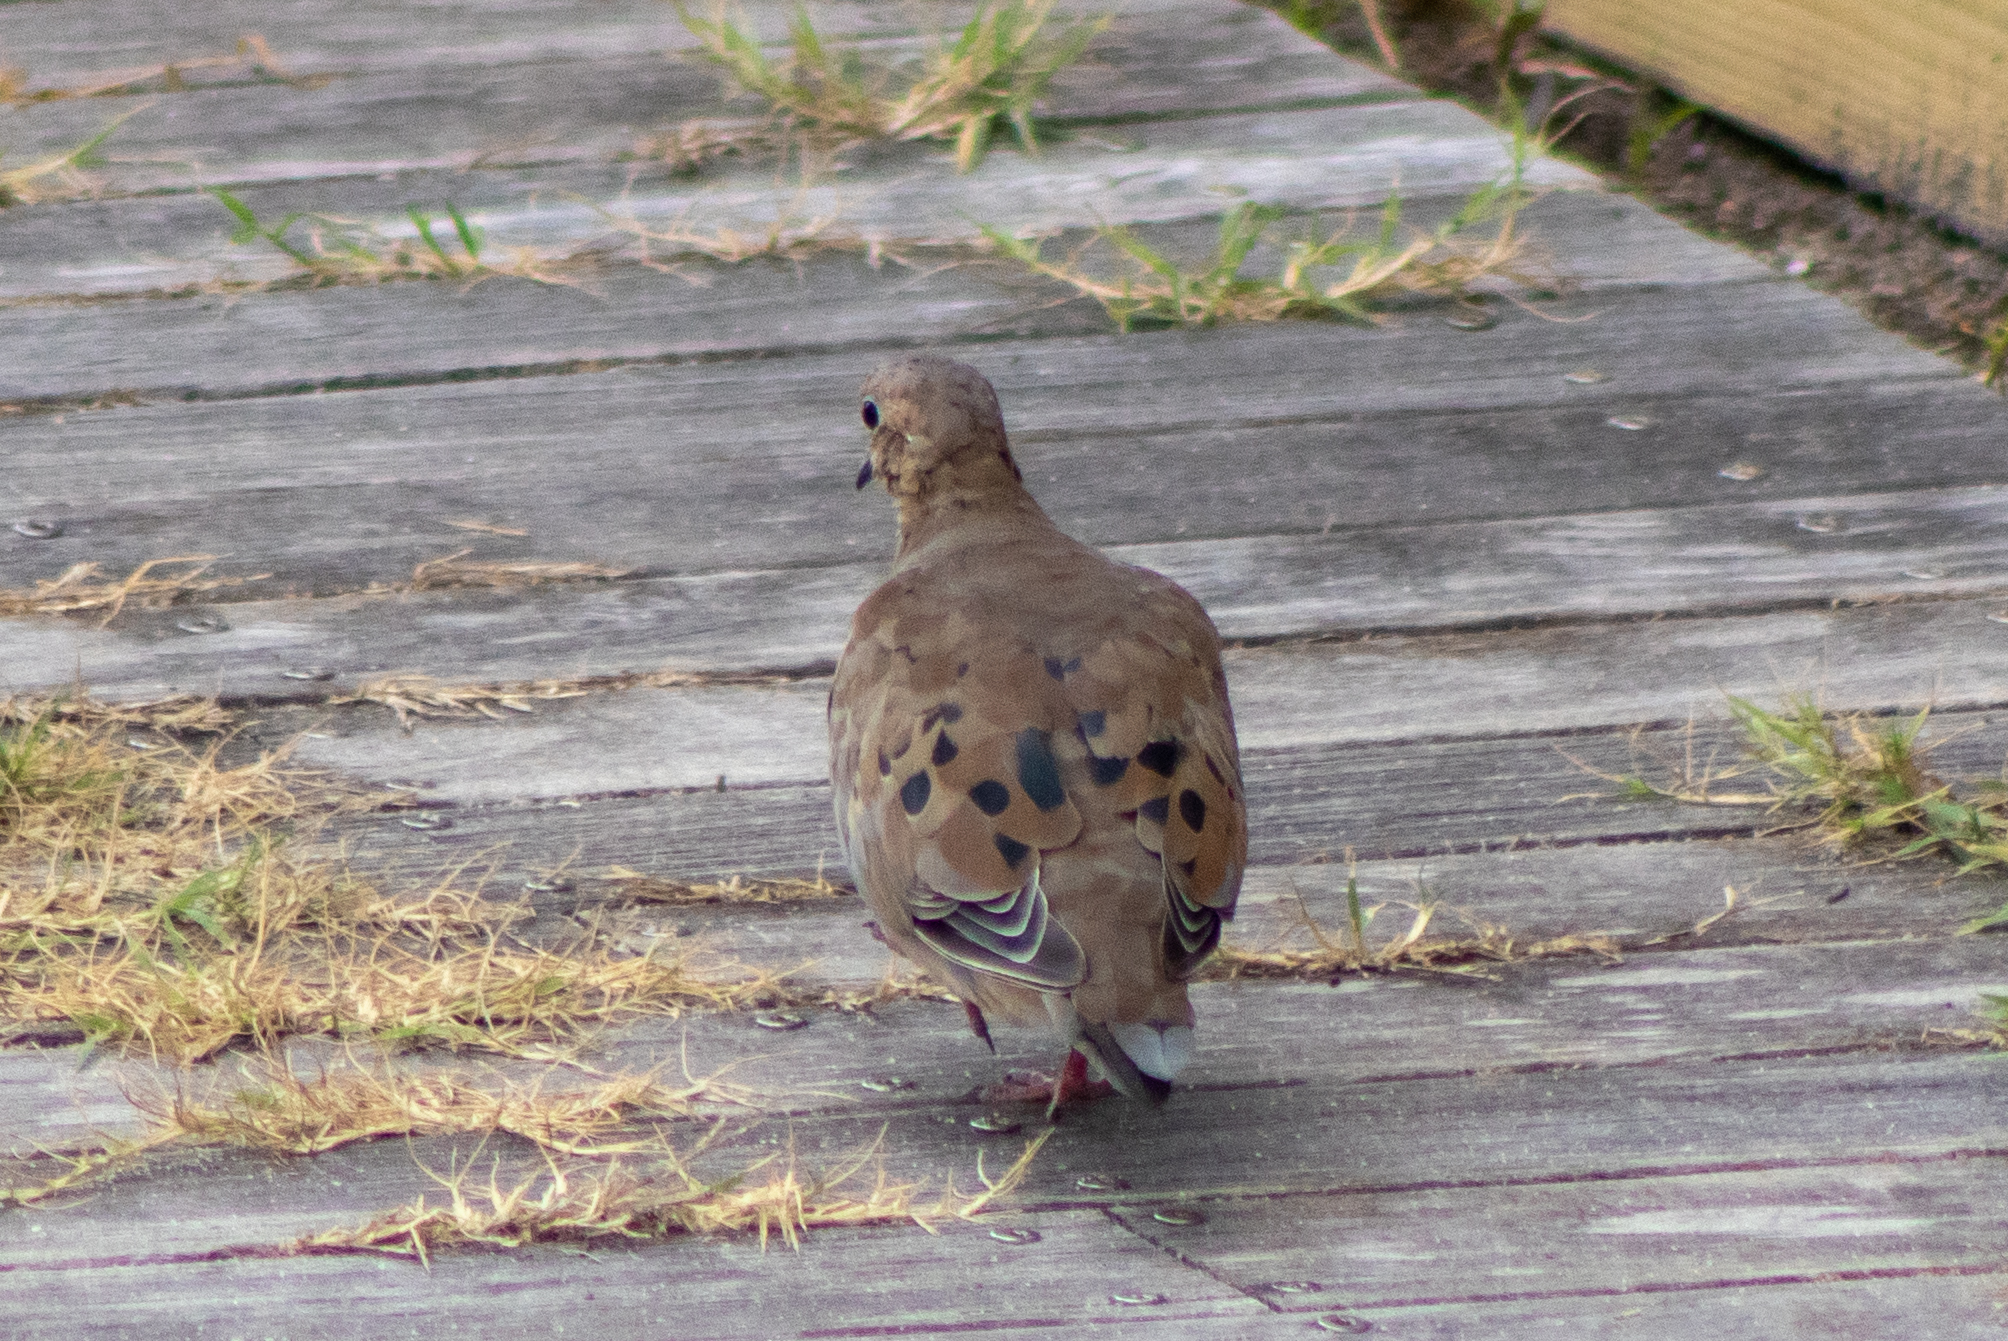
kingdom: Animalia
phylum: Chordata
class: Aves
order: Columbiformes
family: Columbidae
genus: Zenaida
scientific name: Zenaida macroura
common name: Mourning dove
